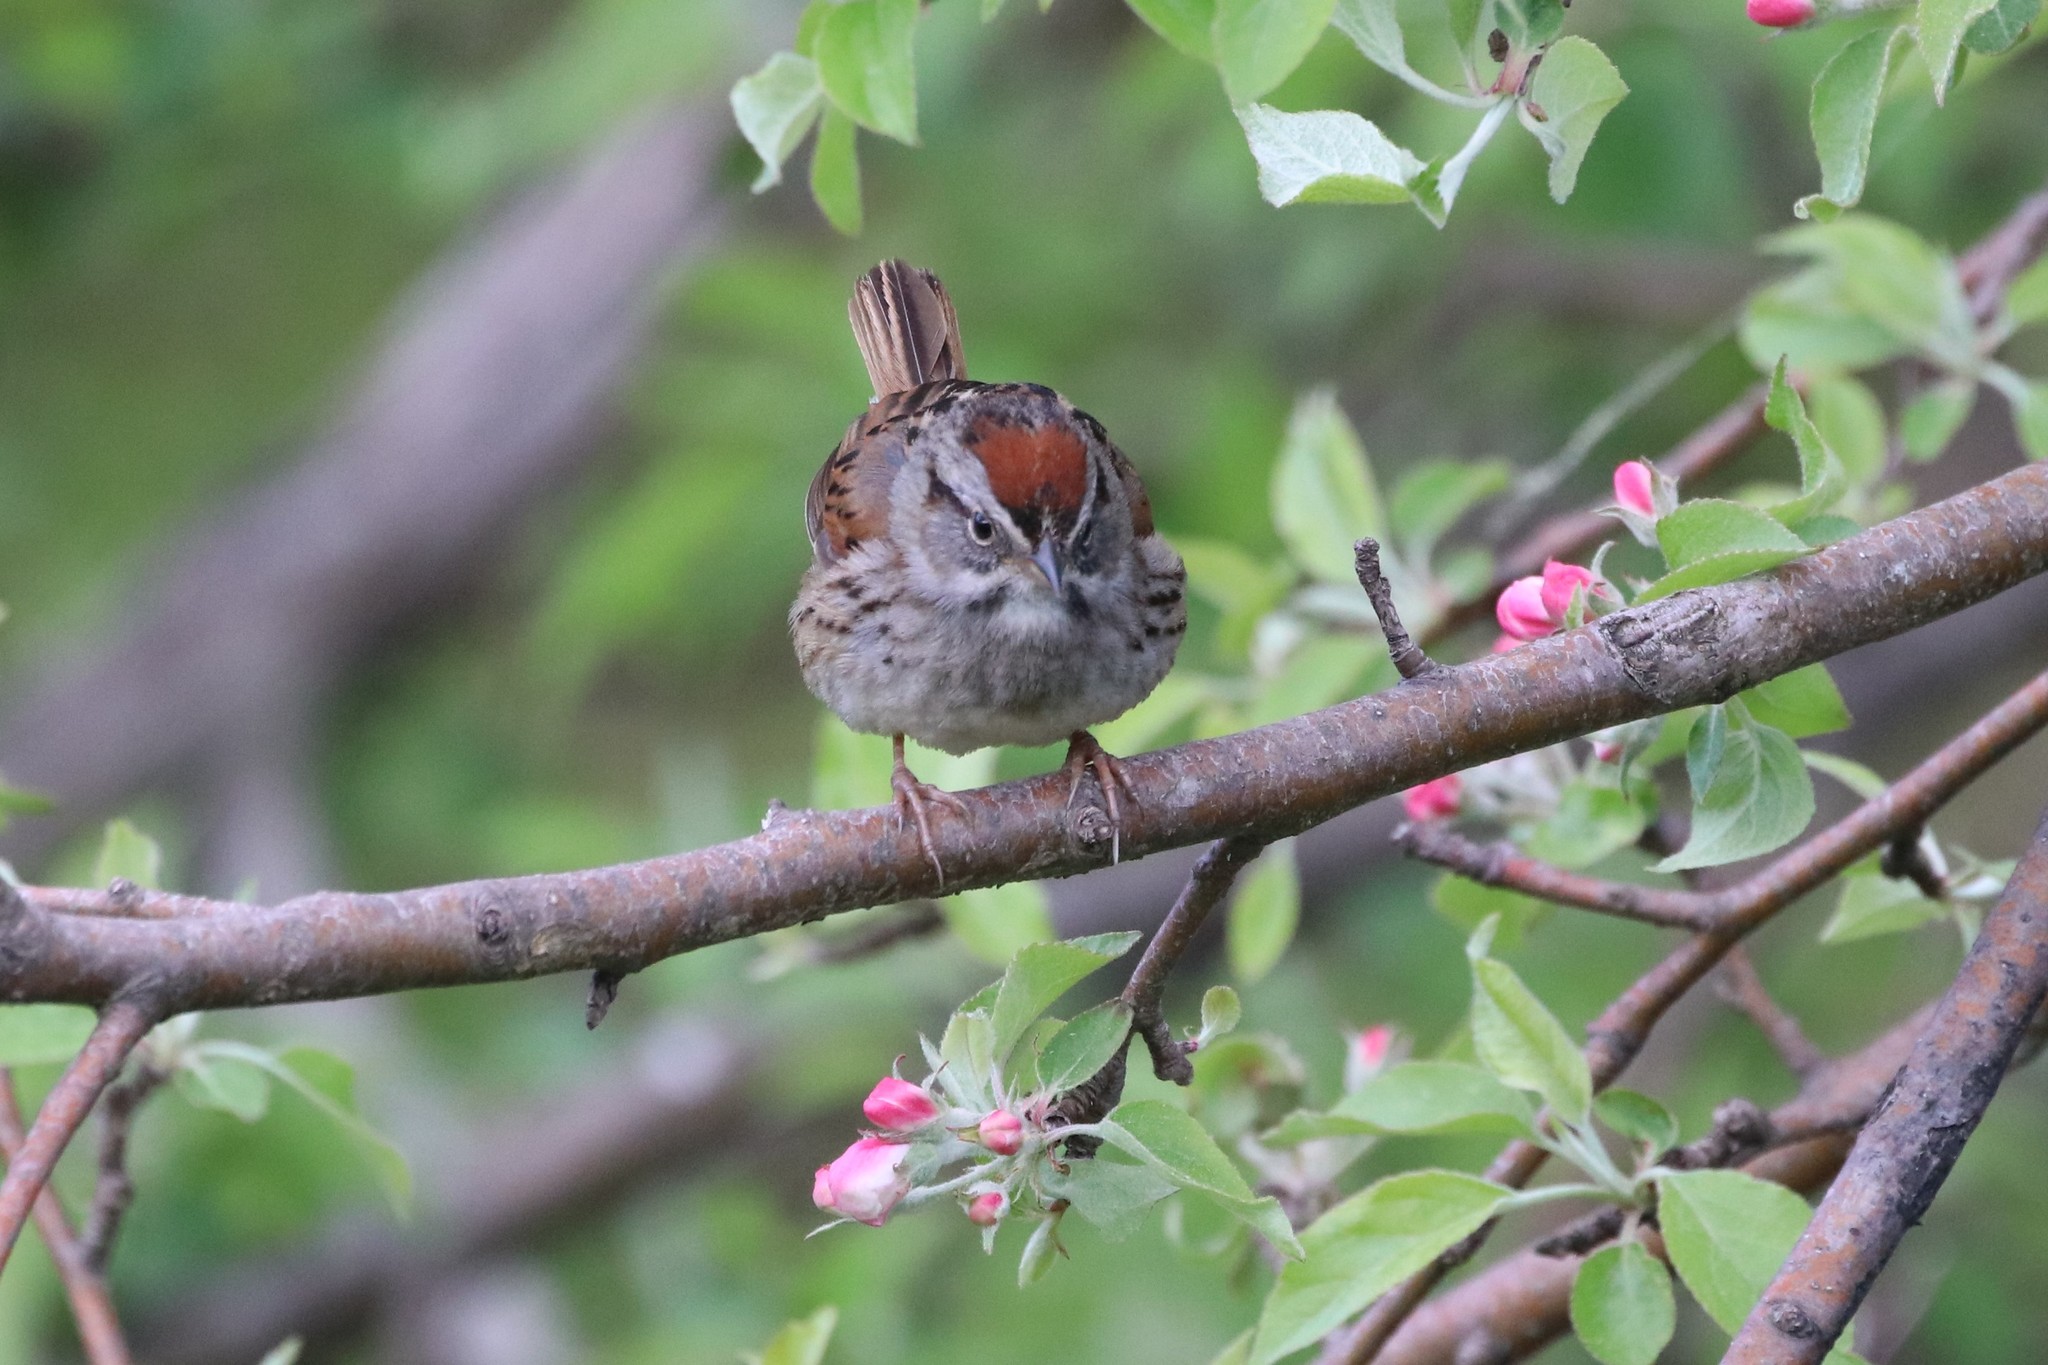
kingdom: Animalia
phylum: Chordata
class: Aves
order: Passeriformes
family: Passerellidae
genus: Melospiza
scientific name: Melospiza georgiana
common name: Swamp sparrow
